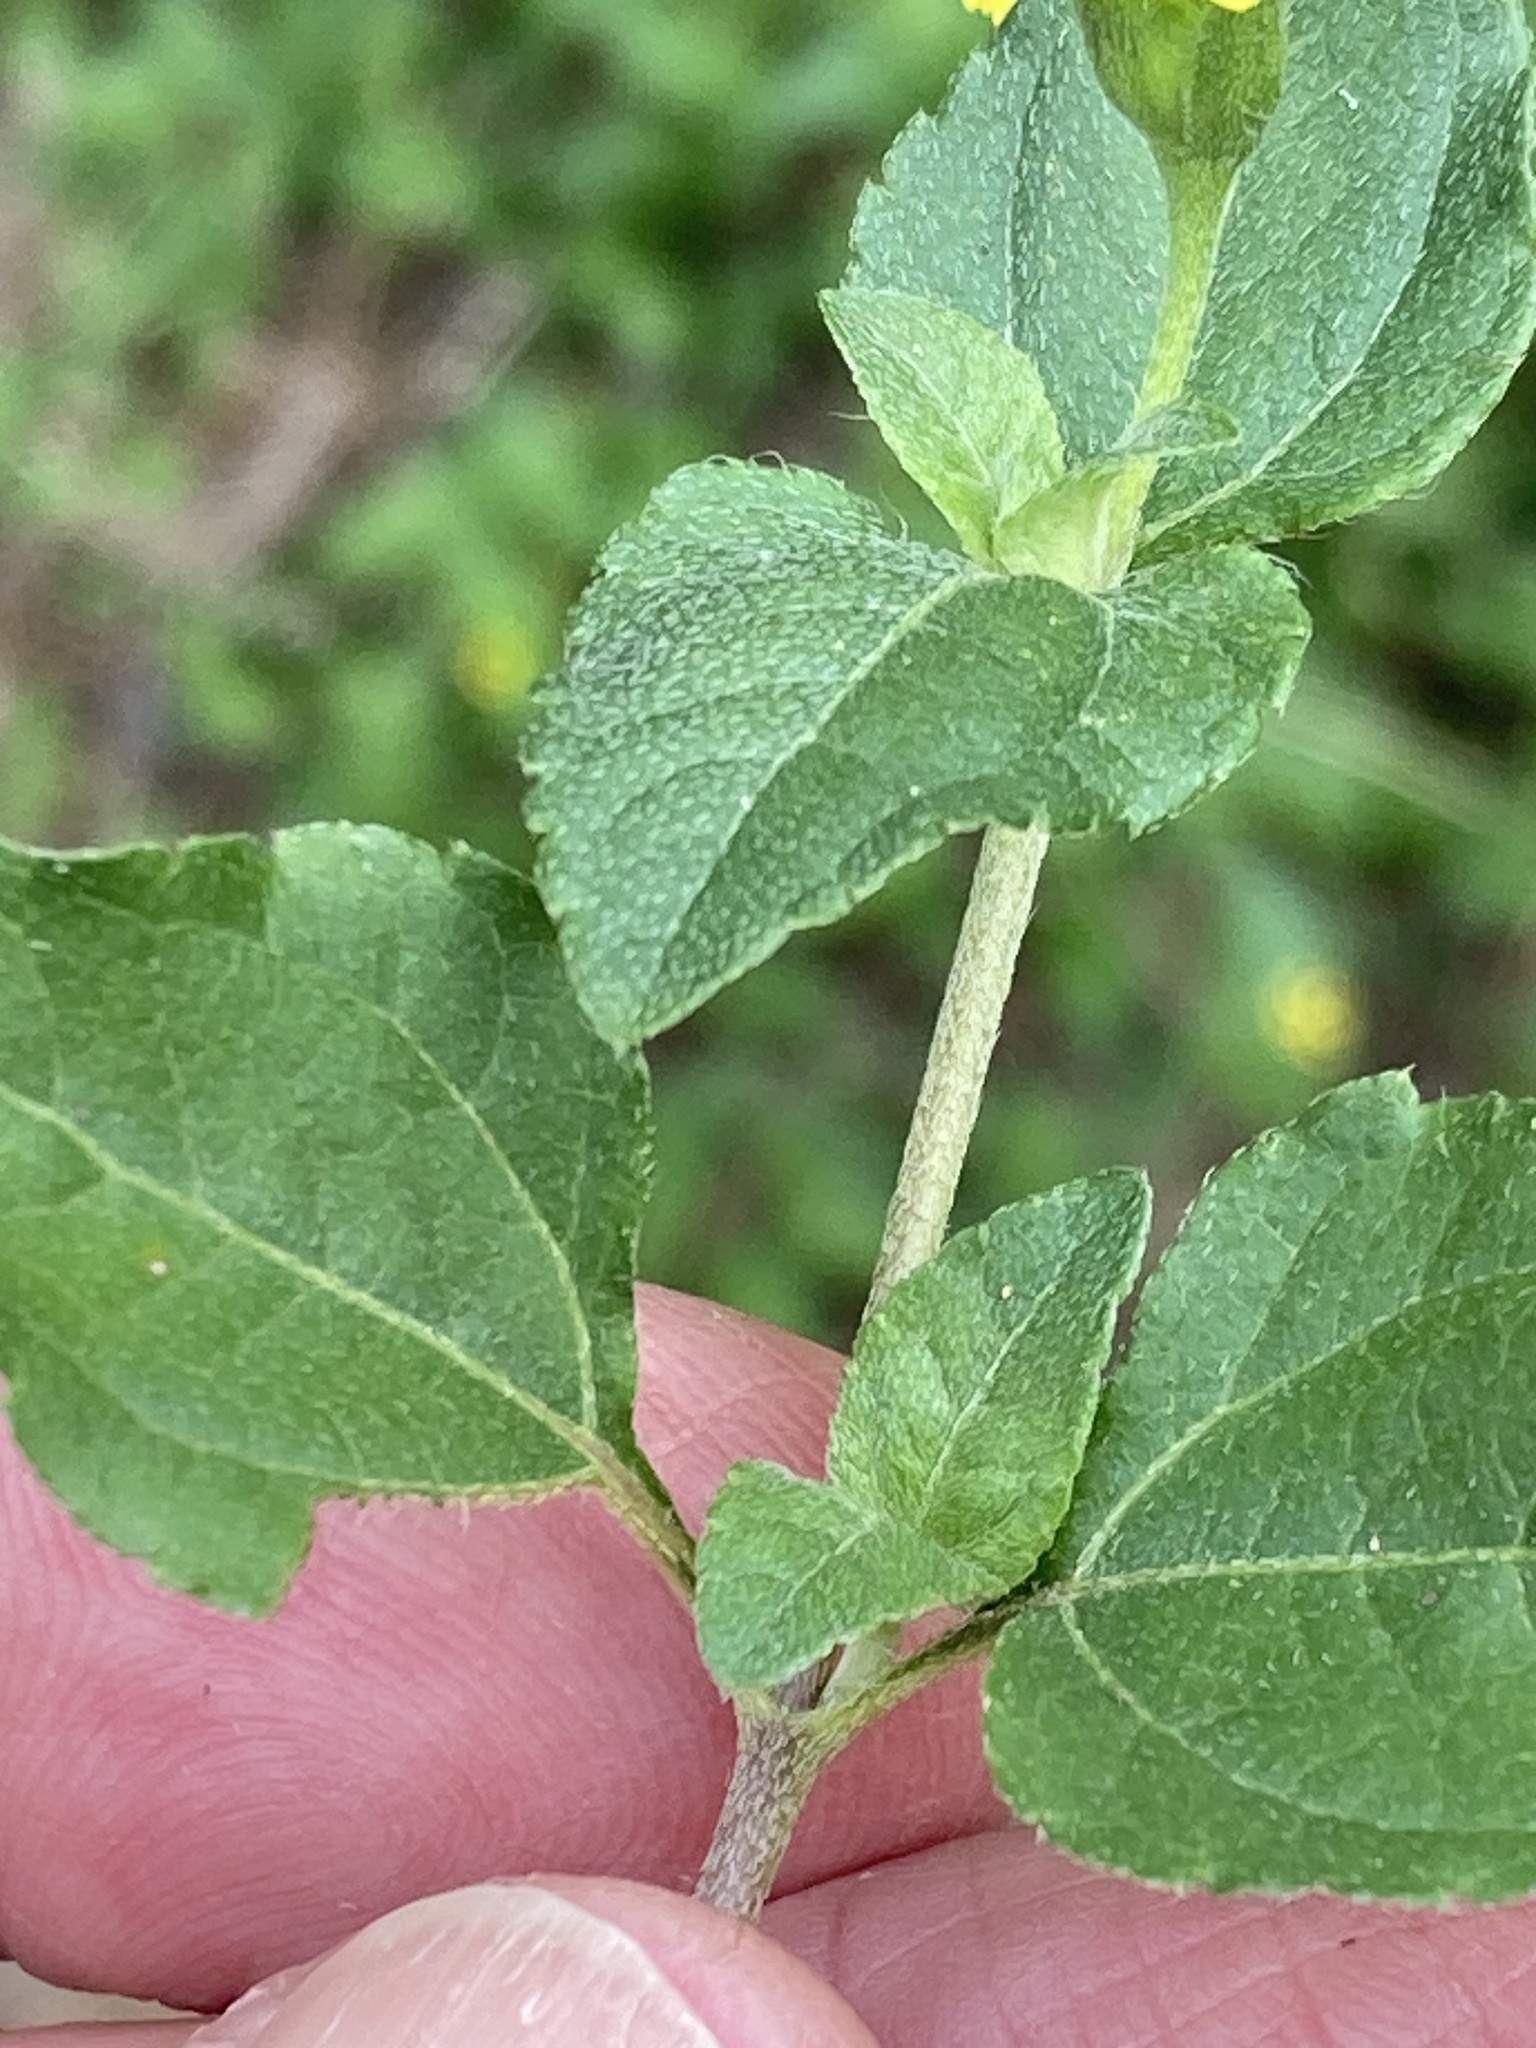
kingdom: Plantae
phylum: Tracheophyta
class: Magnoliopsida
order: Asterales
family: Asteraceae
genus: Calyptocarpus
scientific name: Calyptocarpus vialis
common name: Straggler daisy
